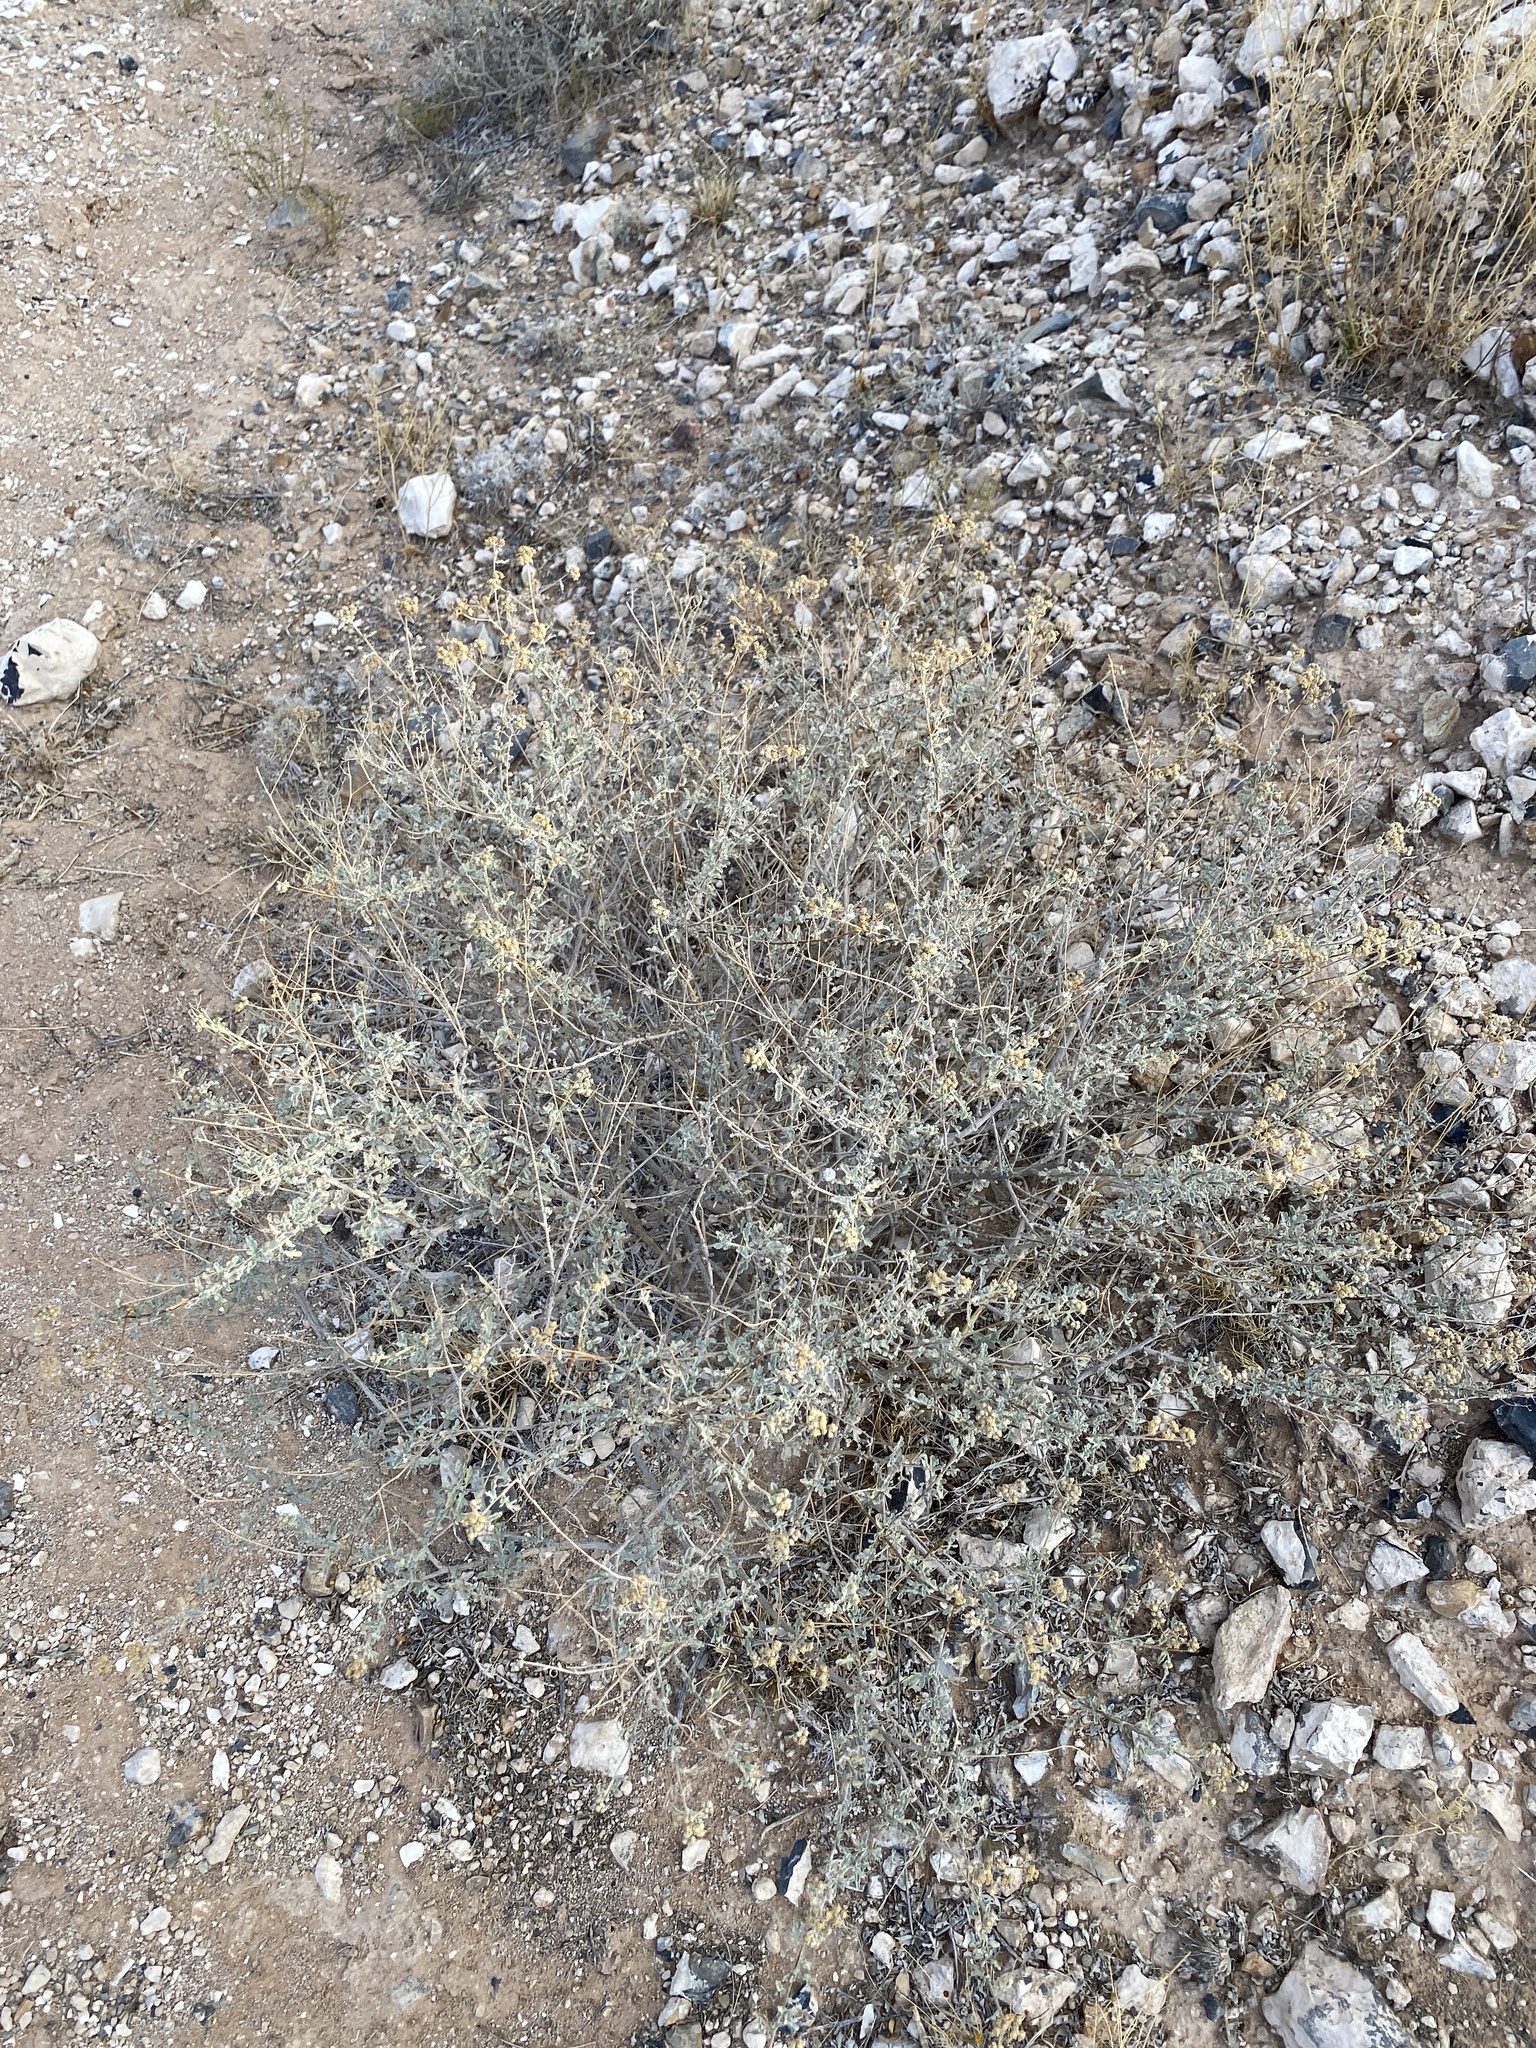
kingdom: Plantae
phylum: Tracheophyta
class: Magnoliopsida
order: Asterales
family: Asteraceae
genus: Parthenium
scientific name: Parthenium incanum
